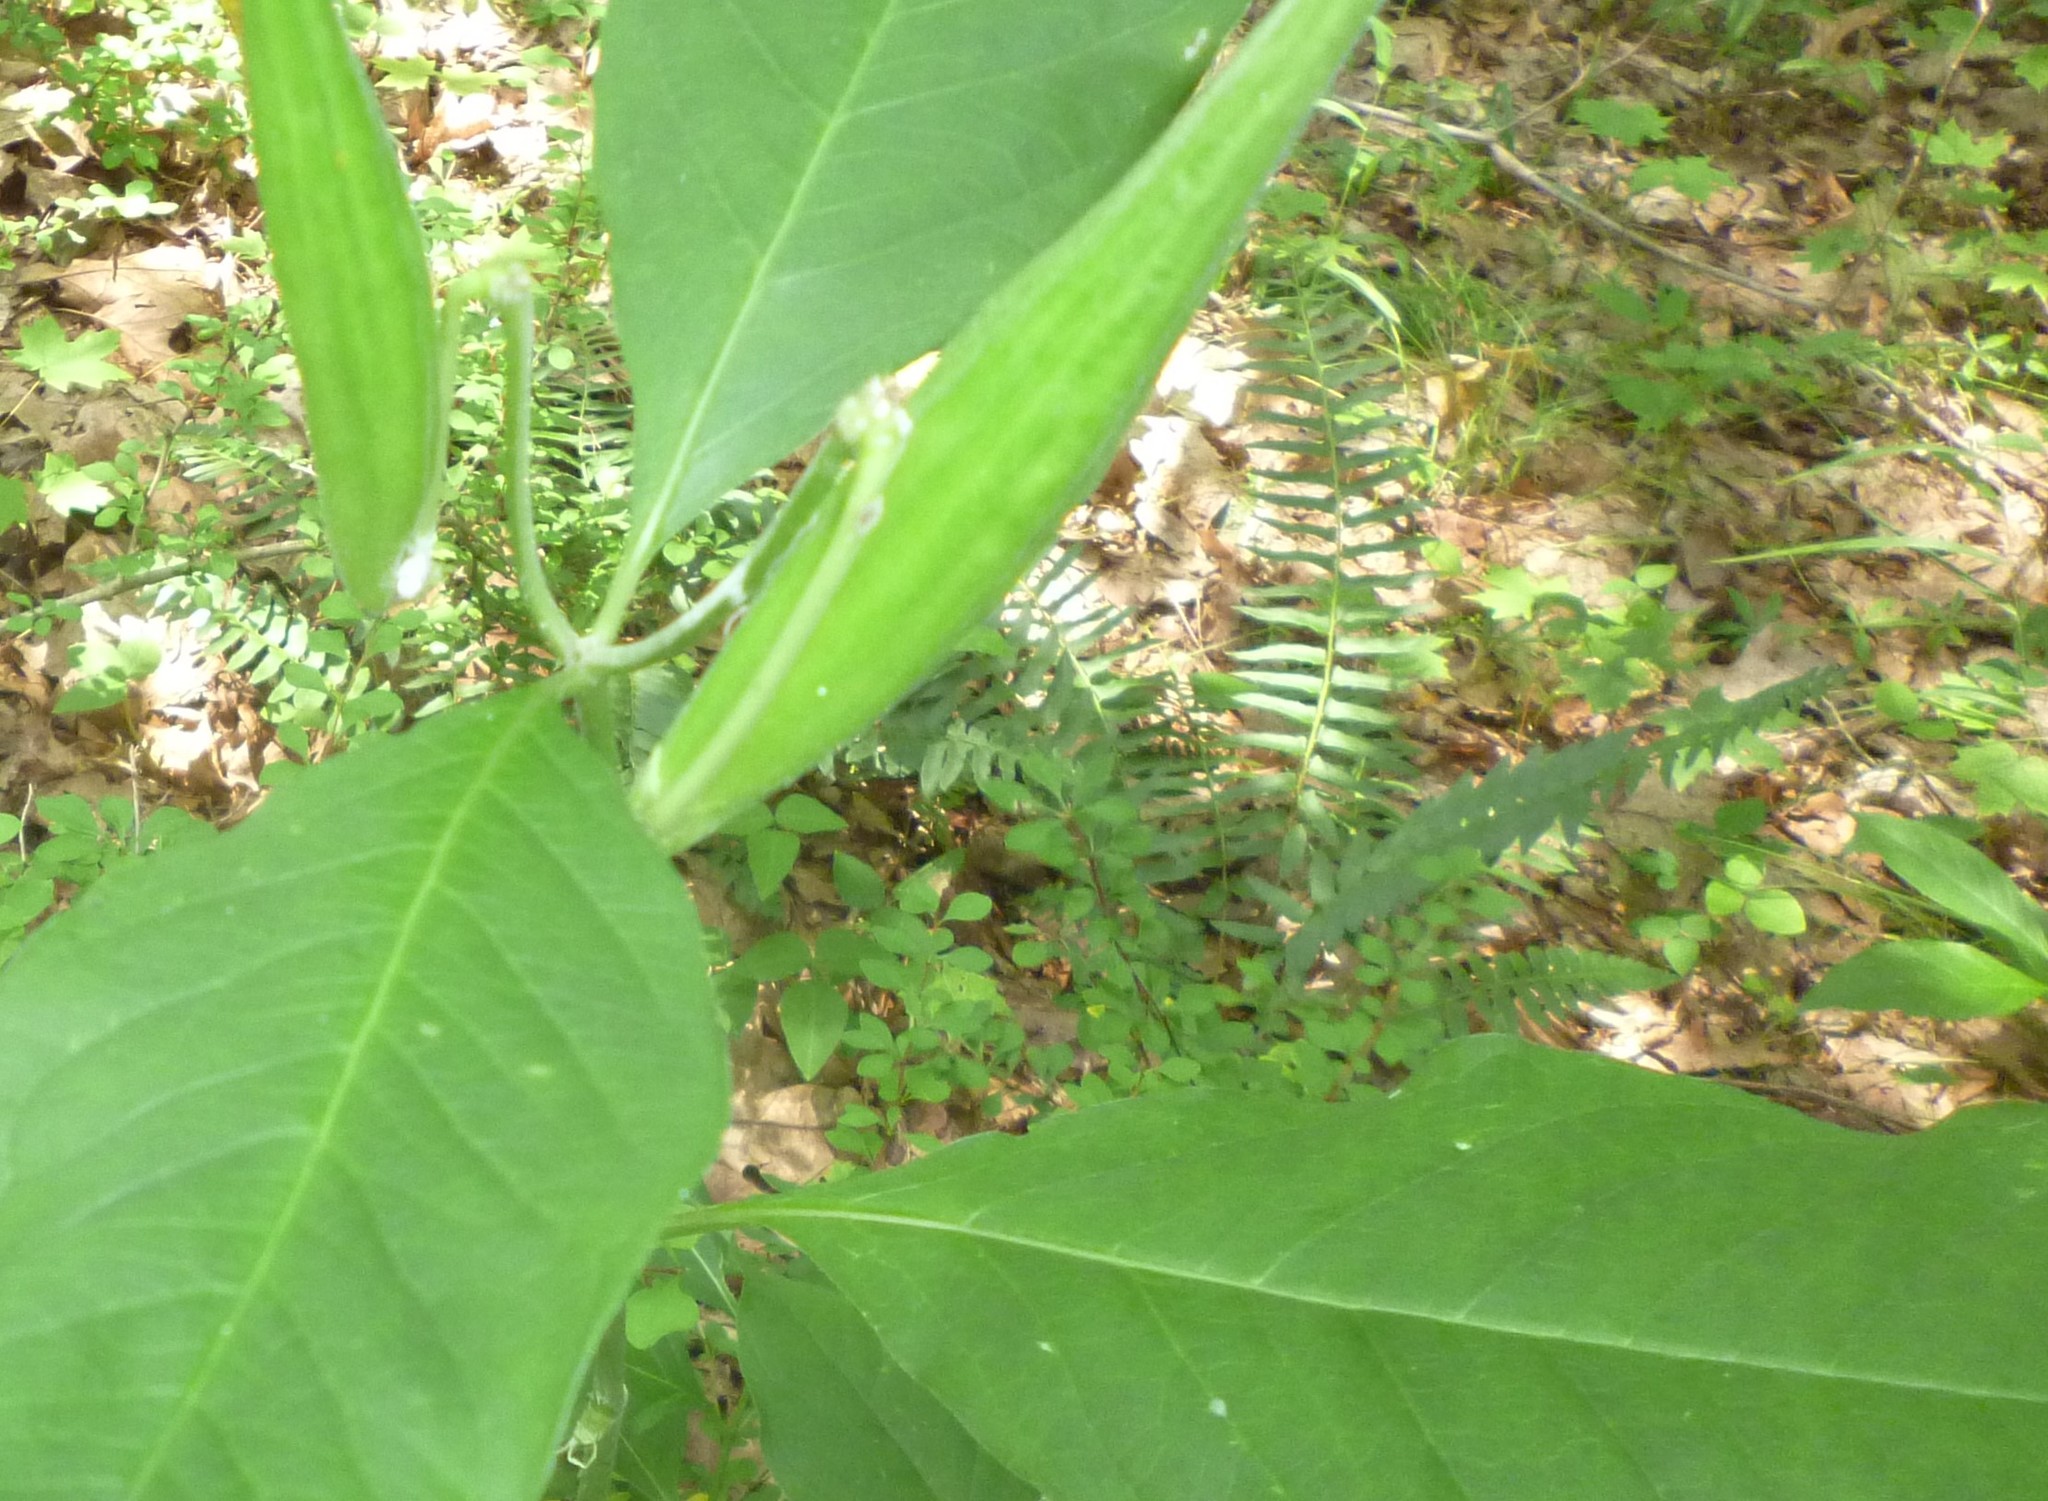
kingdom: Plantae
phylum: Tracheophyta
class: Polypodiopsida
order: Polypodiales
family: Dryopteridaceae
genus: Polystichum
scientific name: Polystichum acrostichoides
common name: Christmas fern
